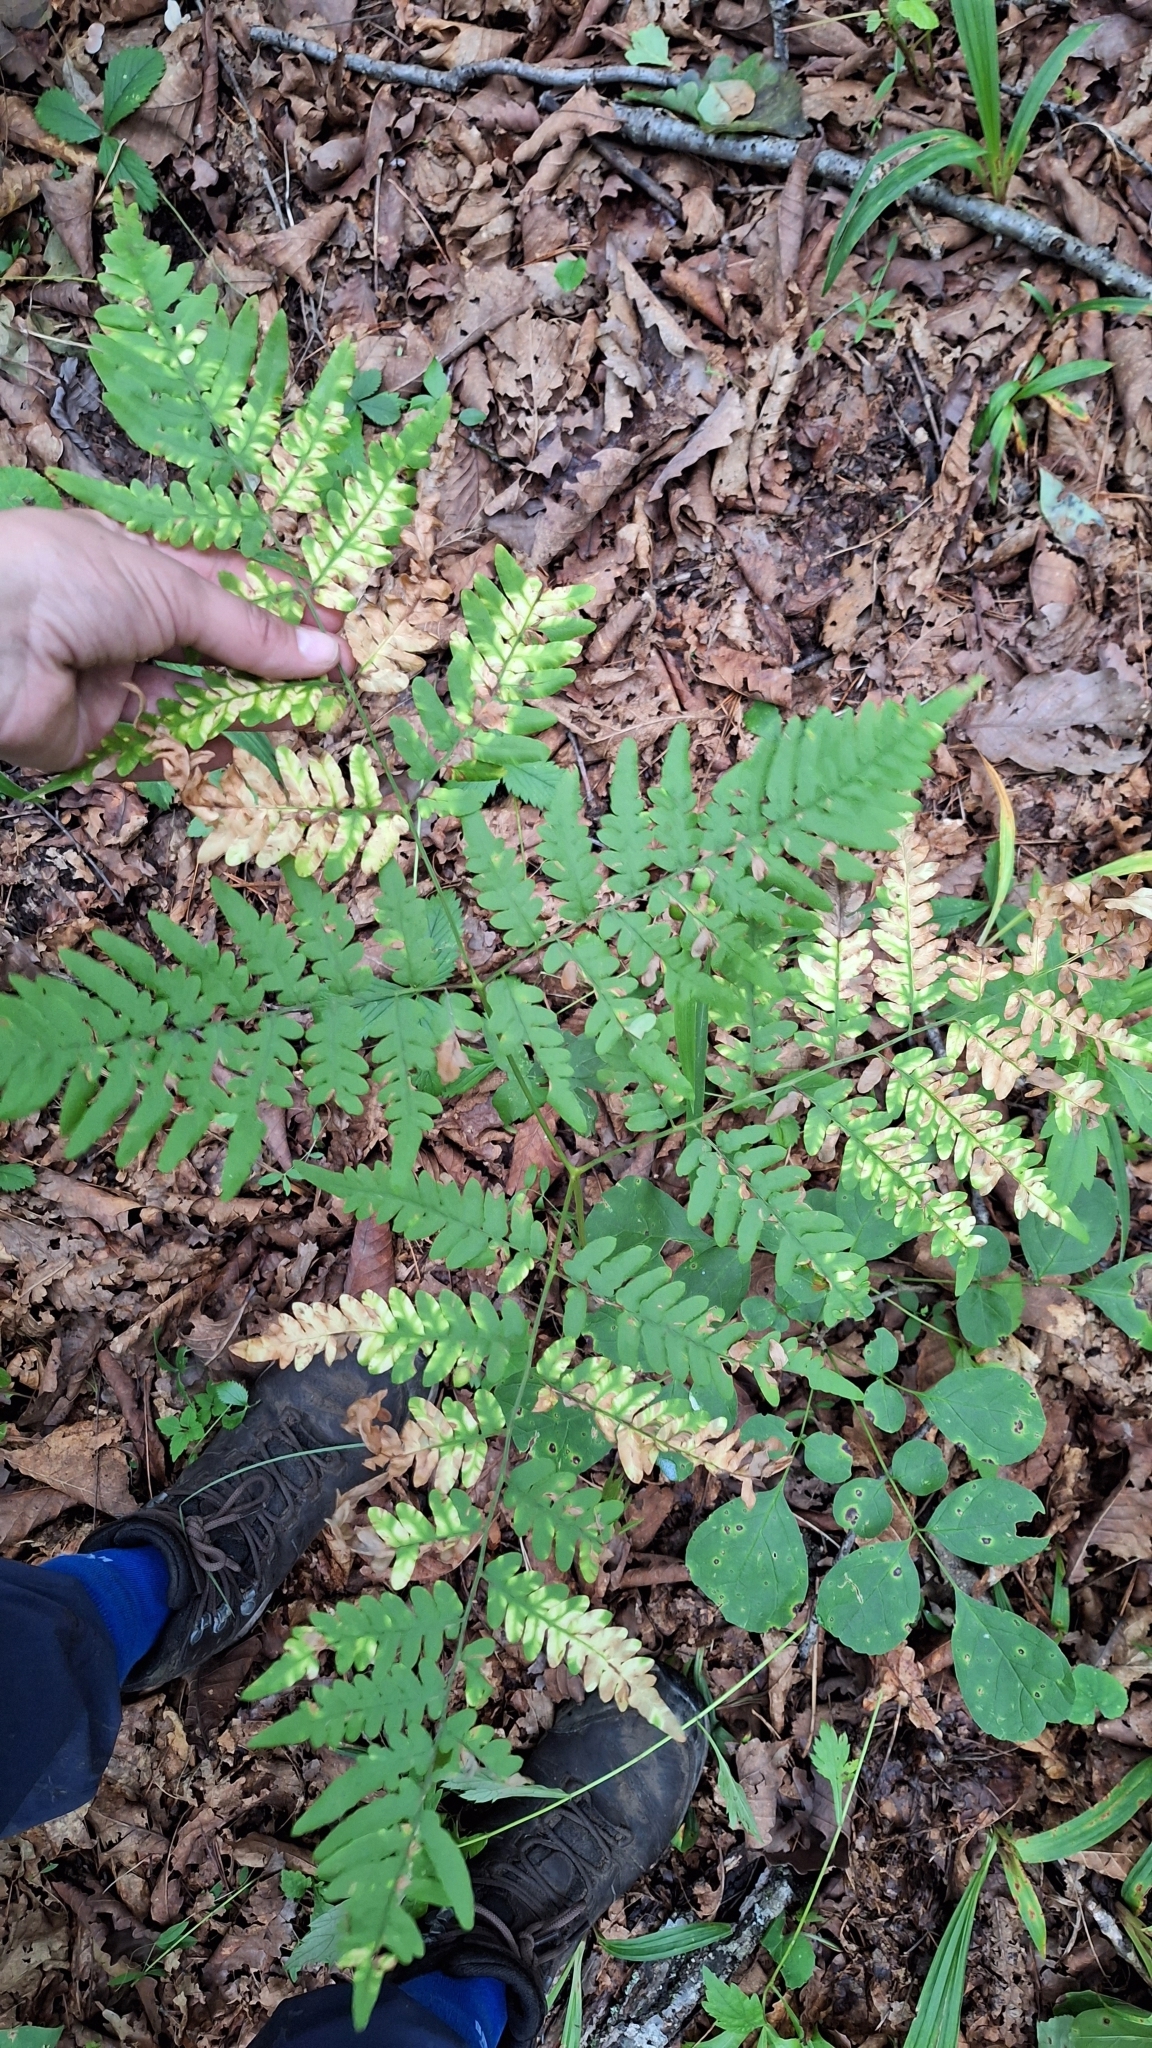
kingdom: Plantae
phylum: Tracheophyta
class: Polypodiopsida
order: Polypodiales
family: Dennstaedtiaceae
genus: Pteridium
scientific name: Pteridium aquilinum
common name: Bracken
